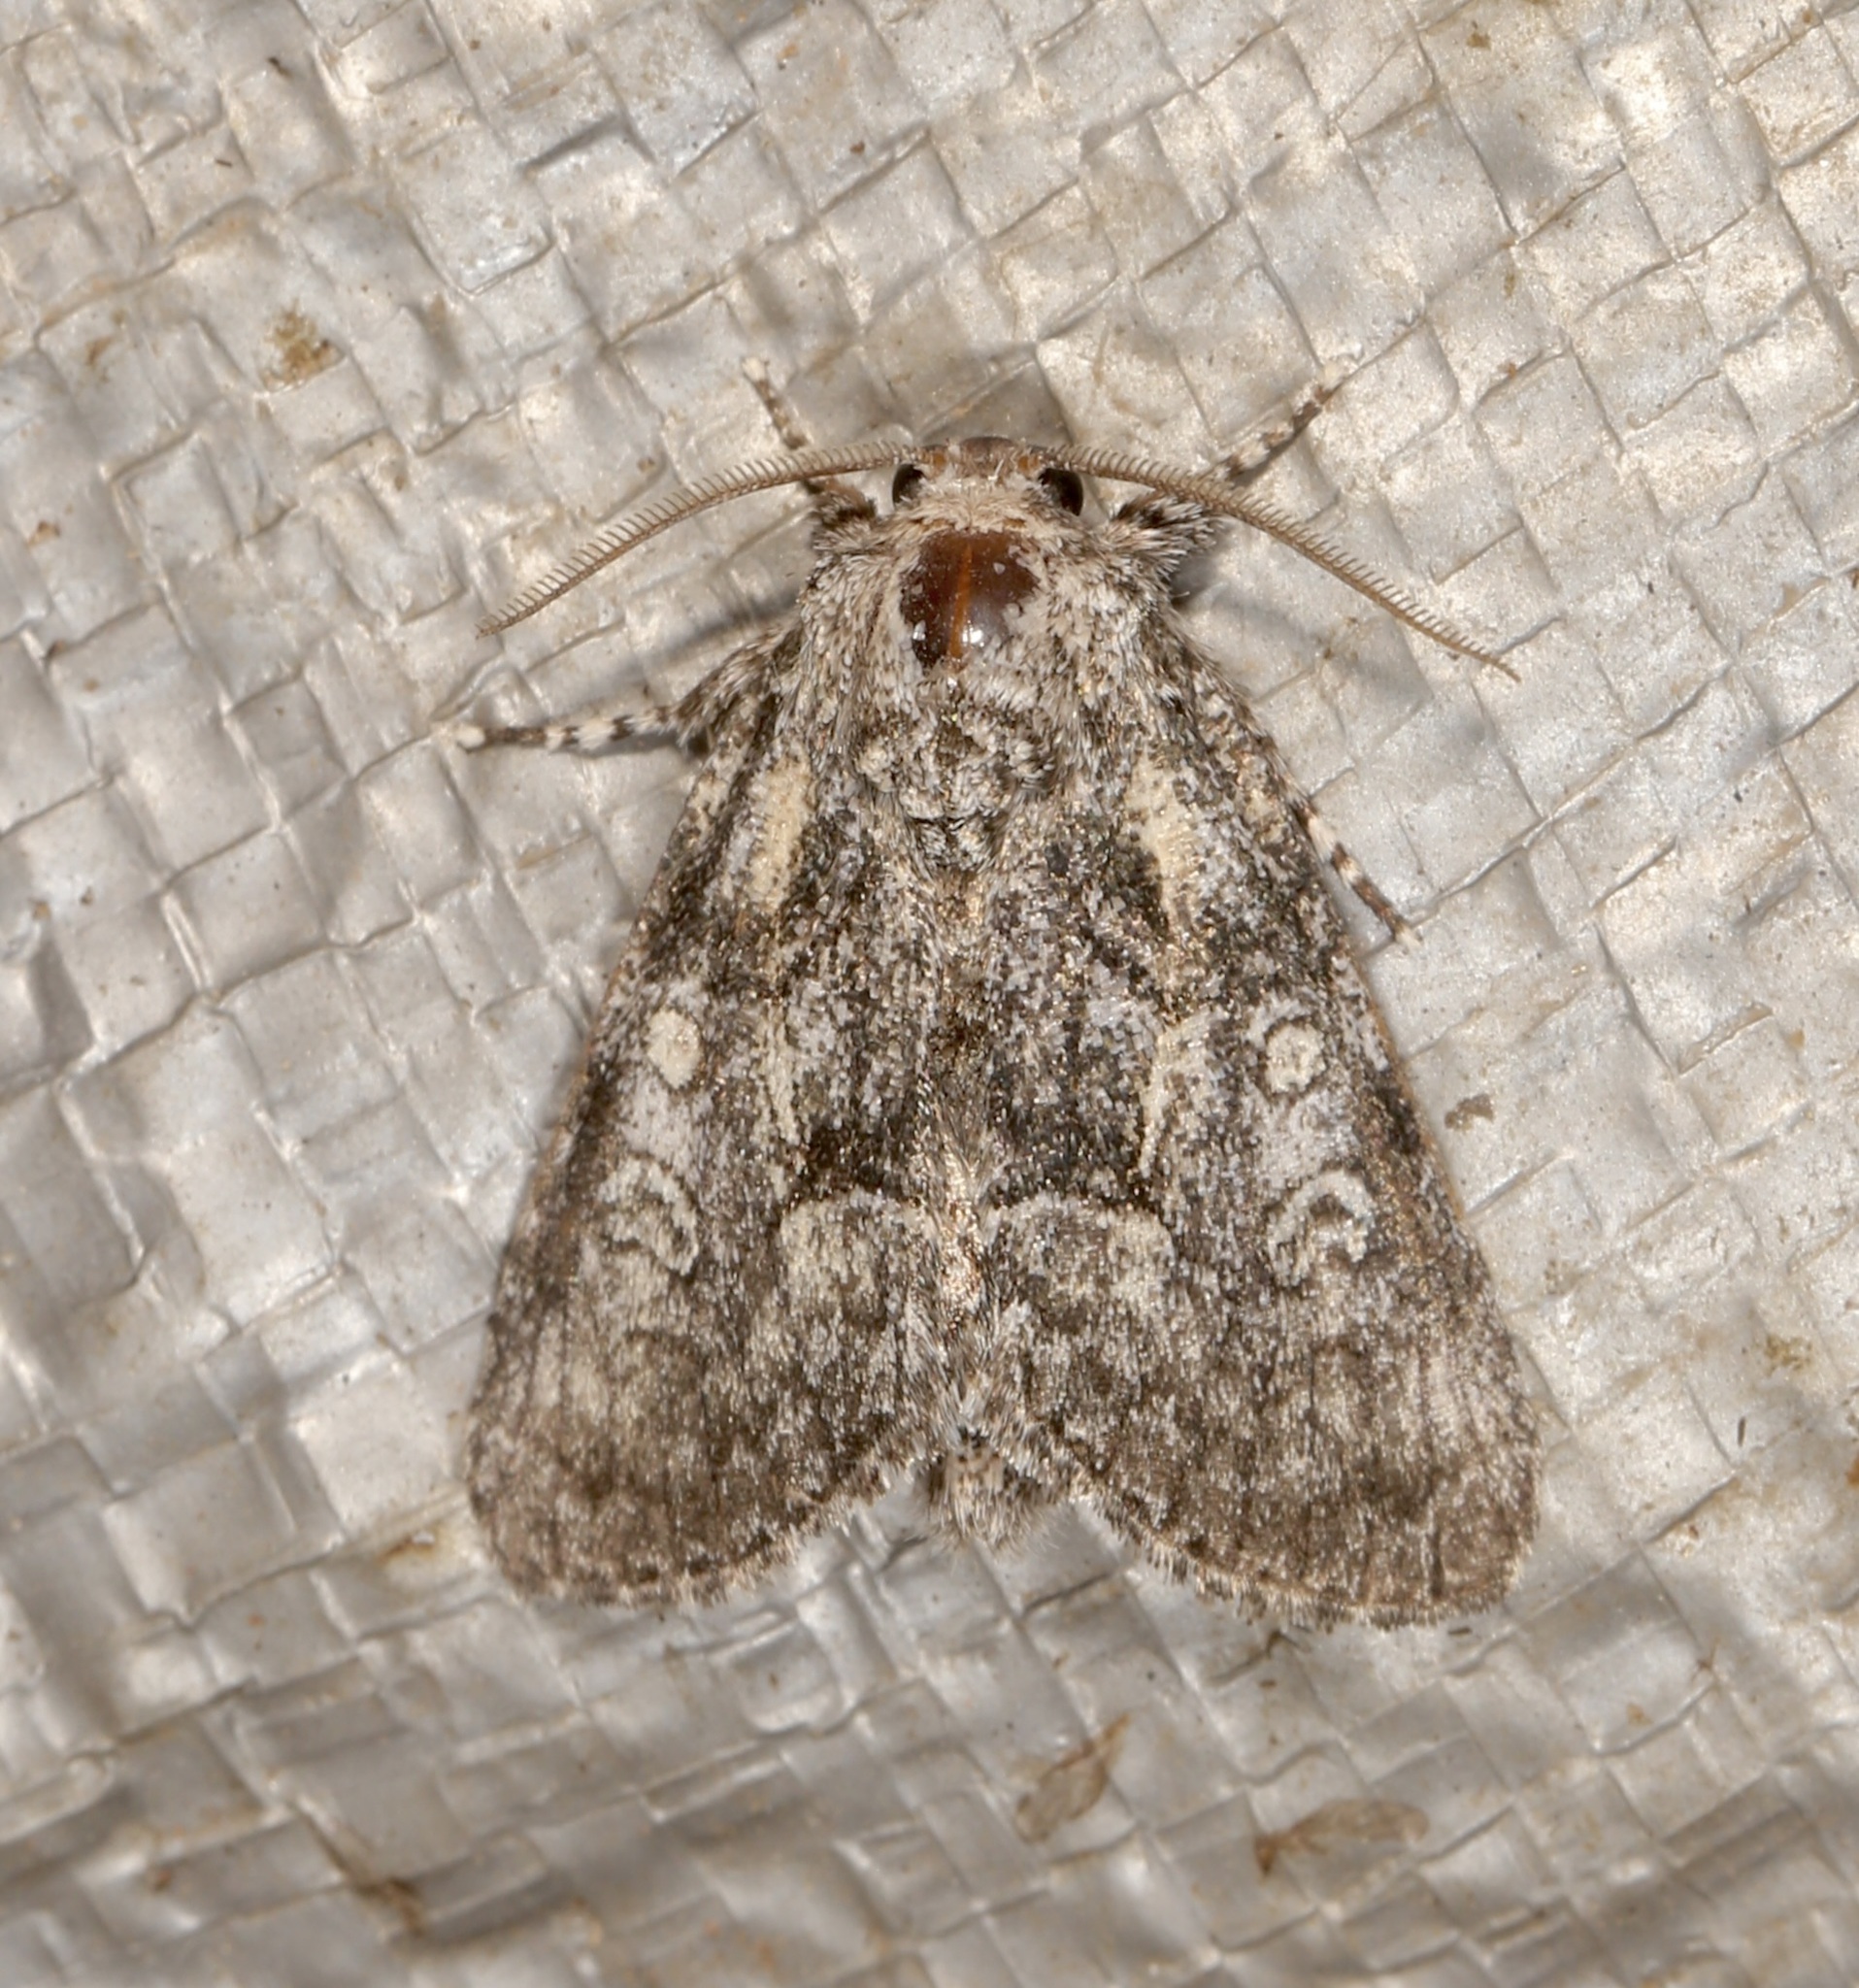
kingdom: Animalia
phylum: Arthropoda
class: Insecta
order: Lepidoptera
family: Noctuidae
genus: Raphia
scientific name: Raphia frater
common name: Brother
